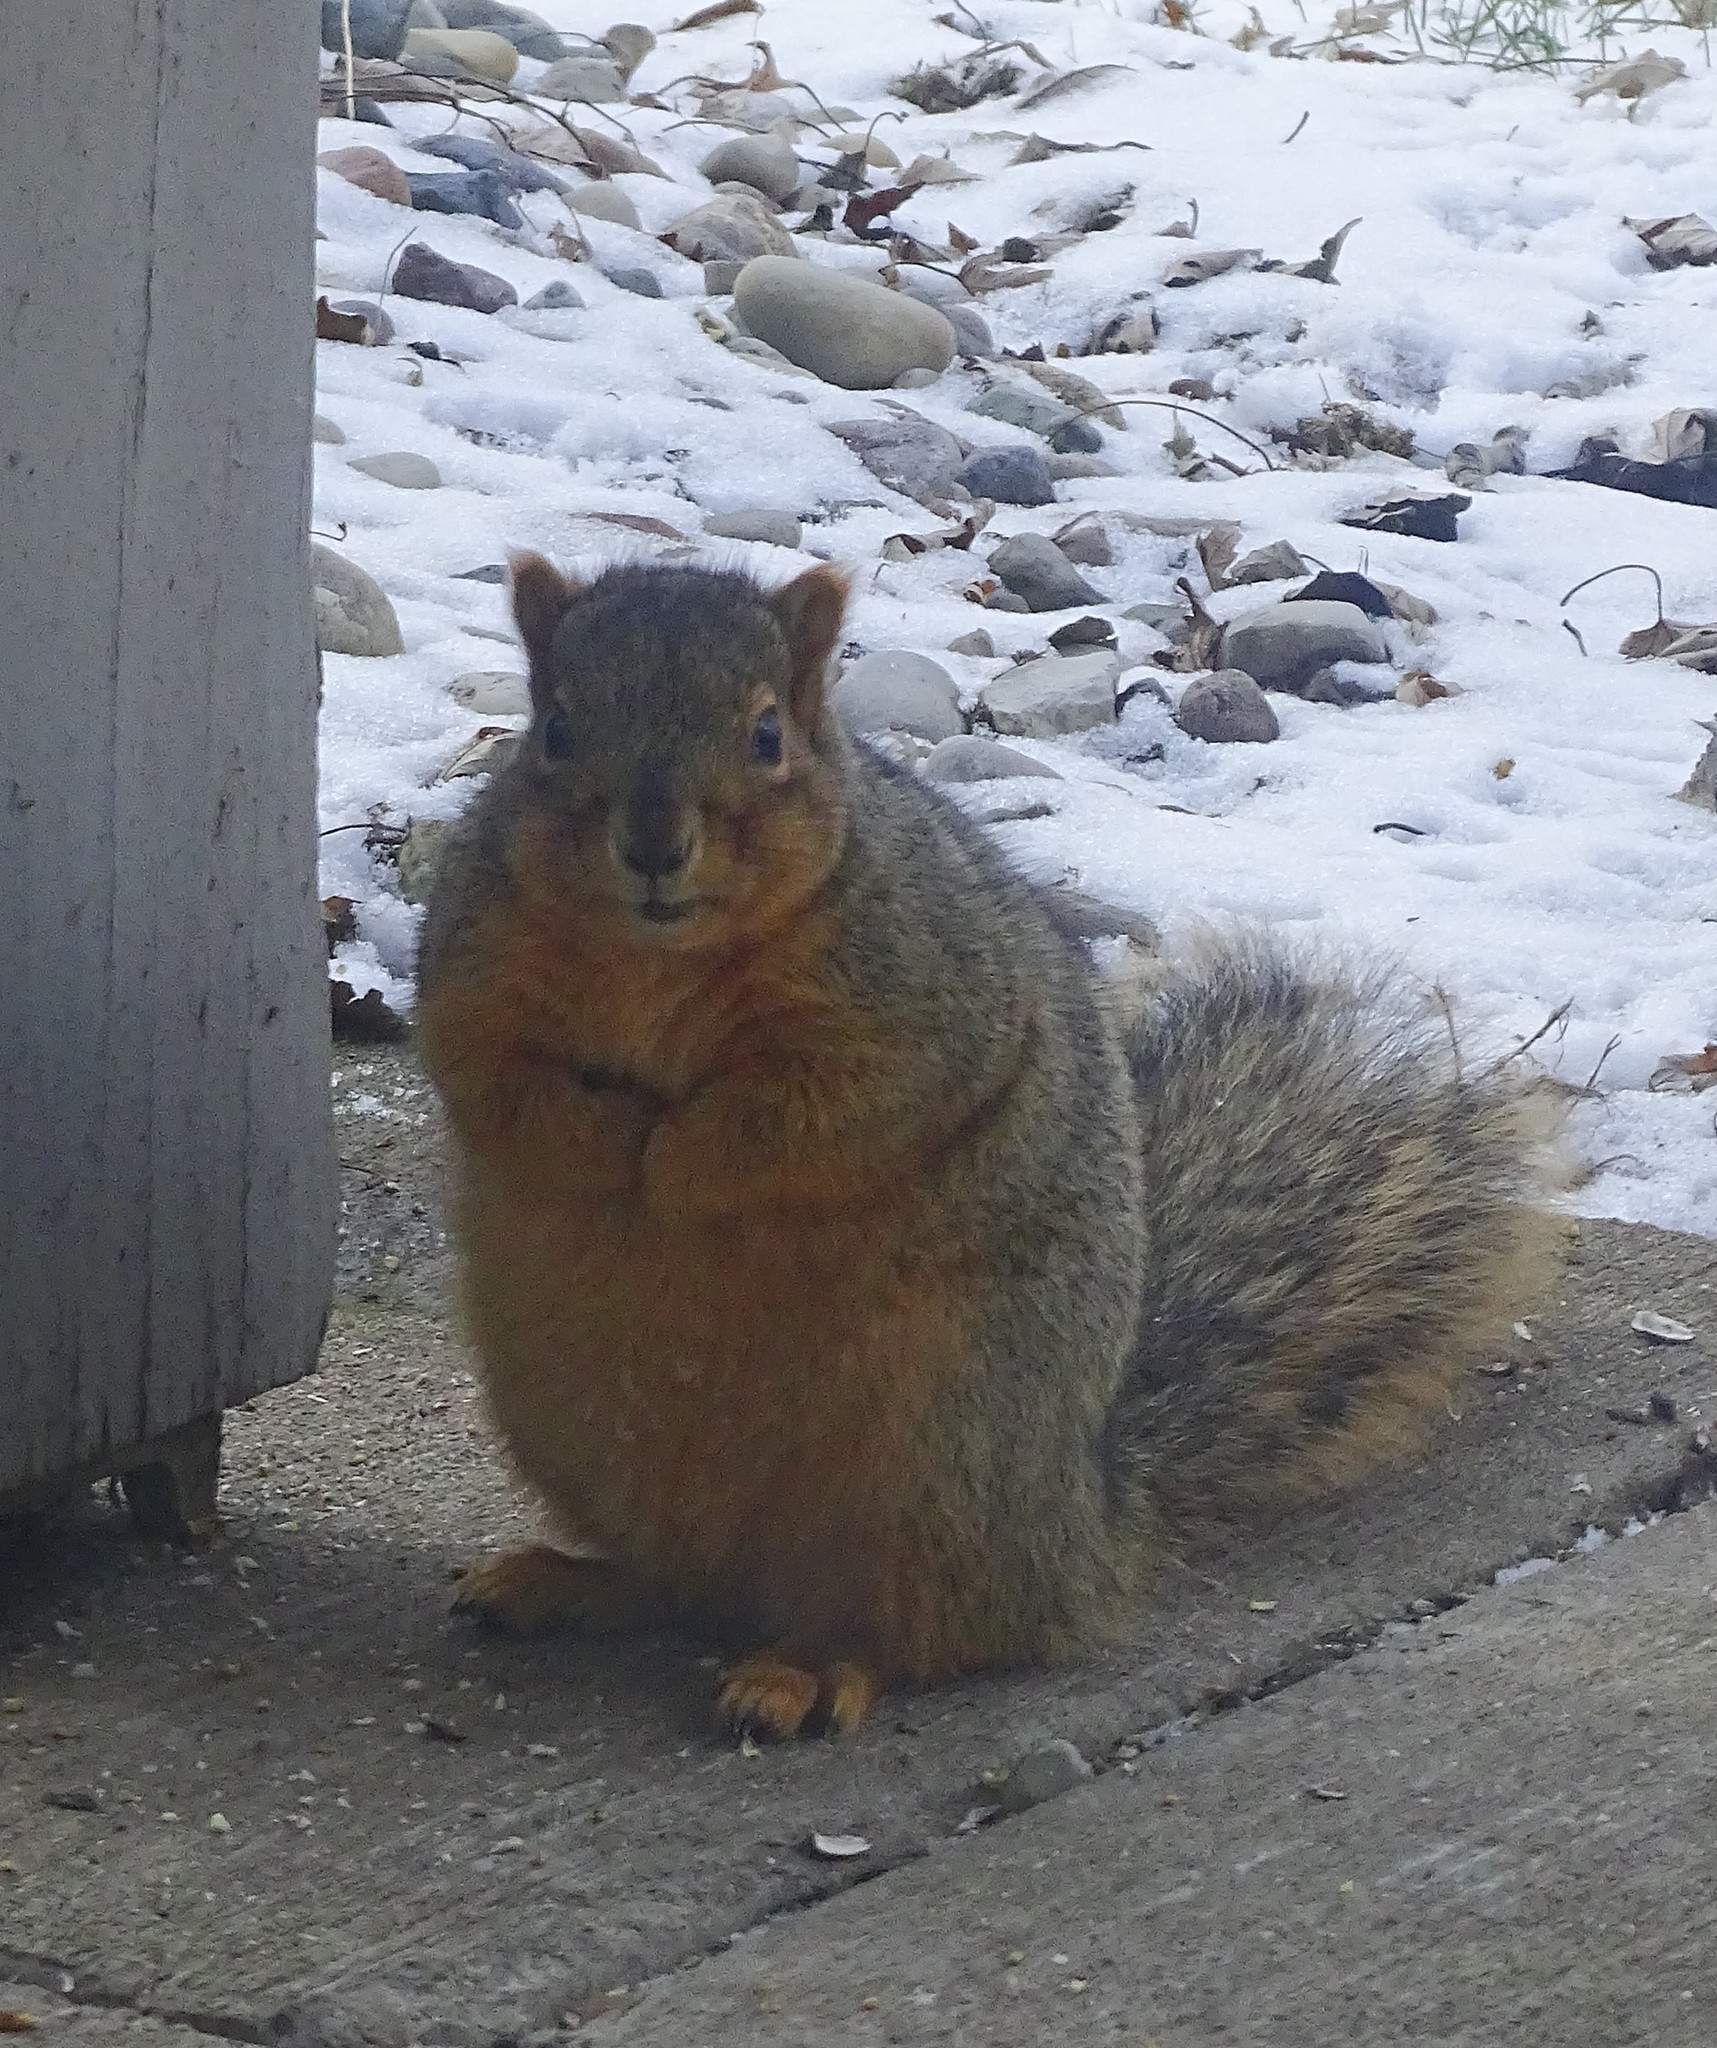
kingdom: Animalia
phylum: Chordata
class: Mammalia
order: Rodentia
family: Sciuridae
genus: Sciurus
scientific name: Sciurus niger
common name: Fox squirrel
